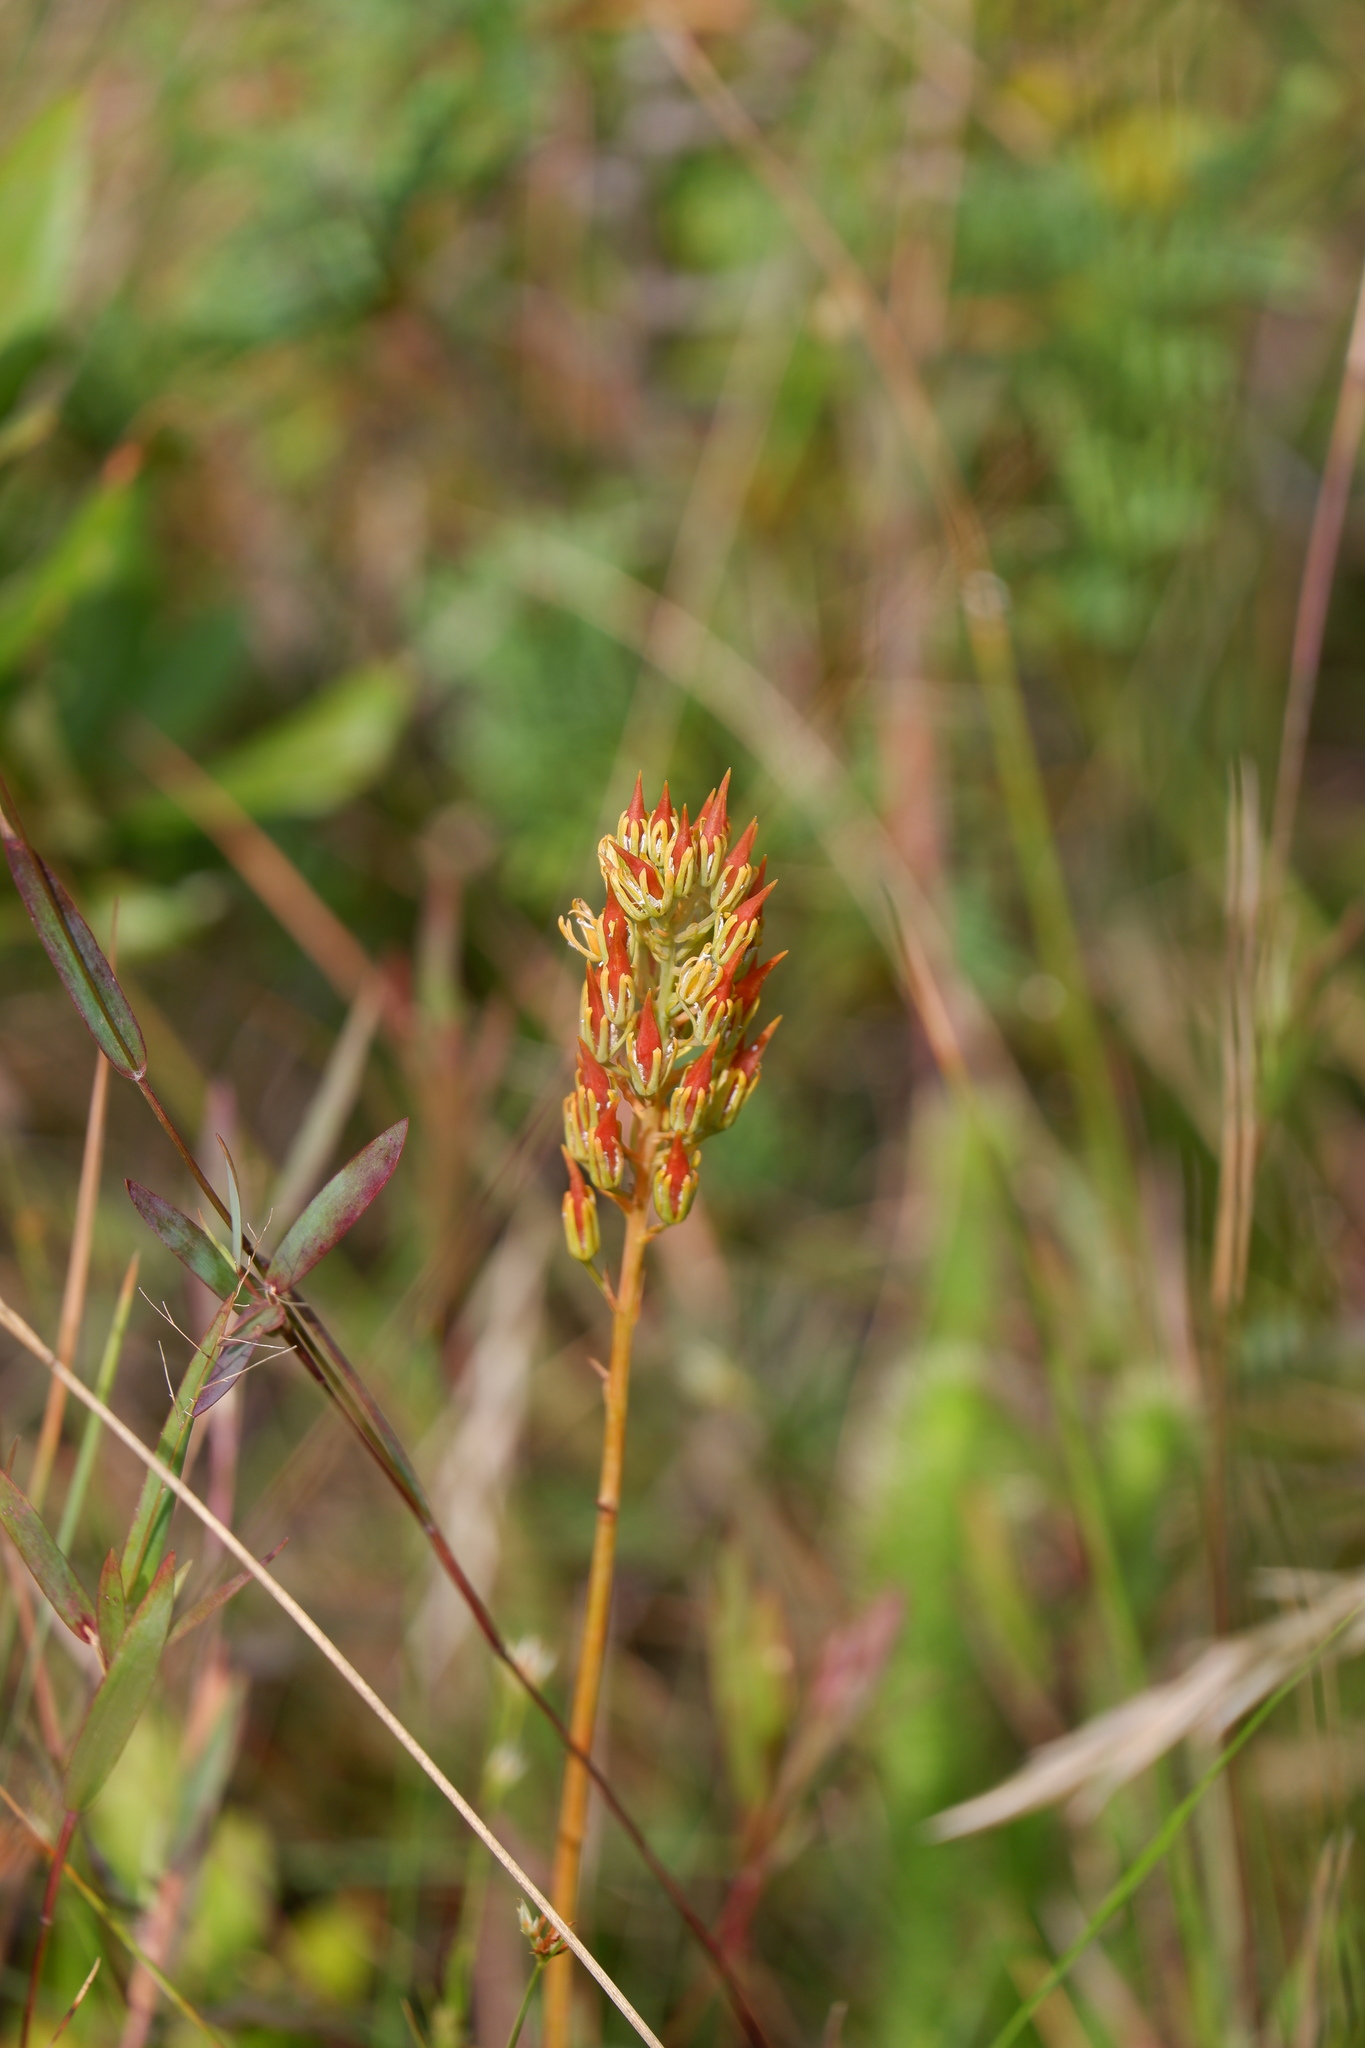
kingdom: Plantae
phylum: Tracheophyta
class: Liliopsida
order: Dioscoreales
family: Nartheciaceae
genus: Narthecium
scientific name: Narthecium americanum
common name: Bog-asphodel
